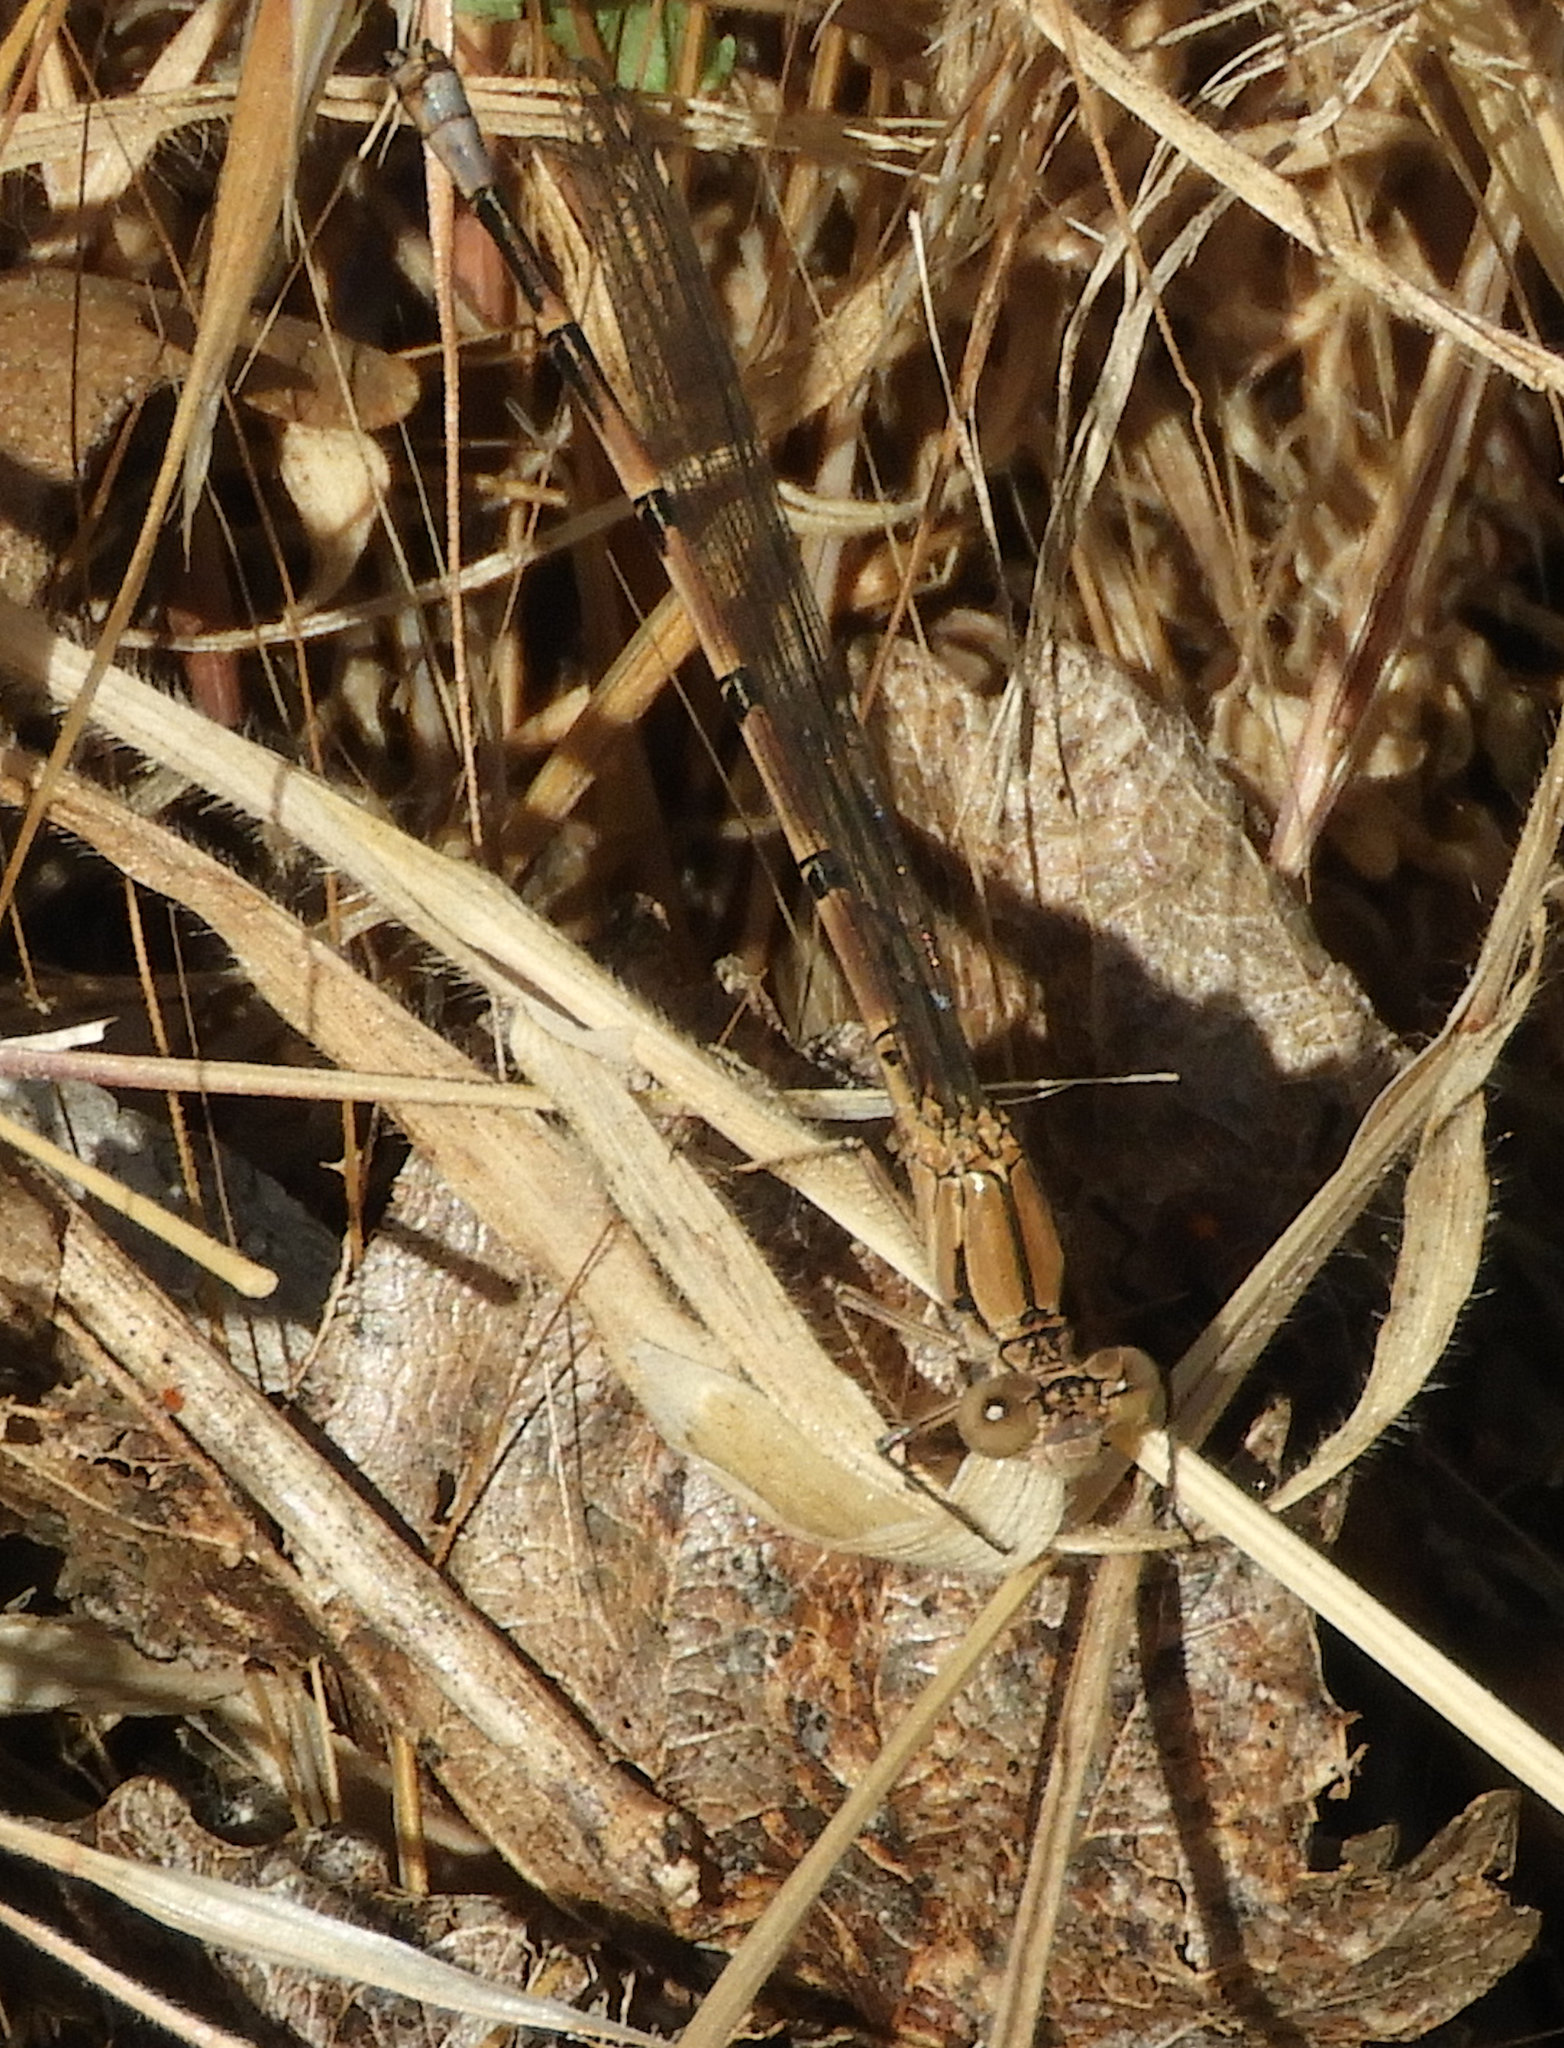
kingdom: Animalia
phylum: Arthropoda
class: Insecta
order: Odonata
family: Coenagrionidae
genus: Argia
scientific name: Argia emma
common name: Emma's dancer
